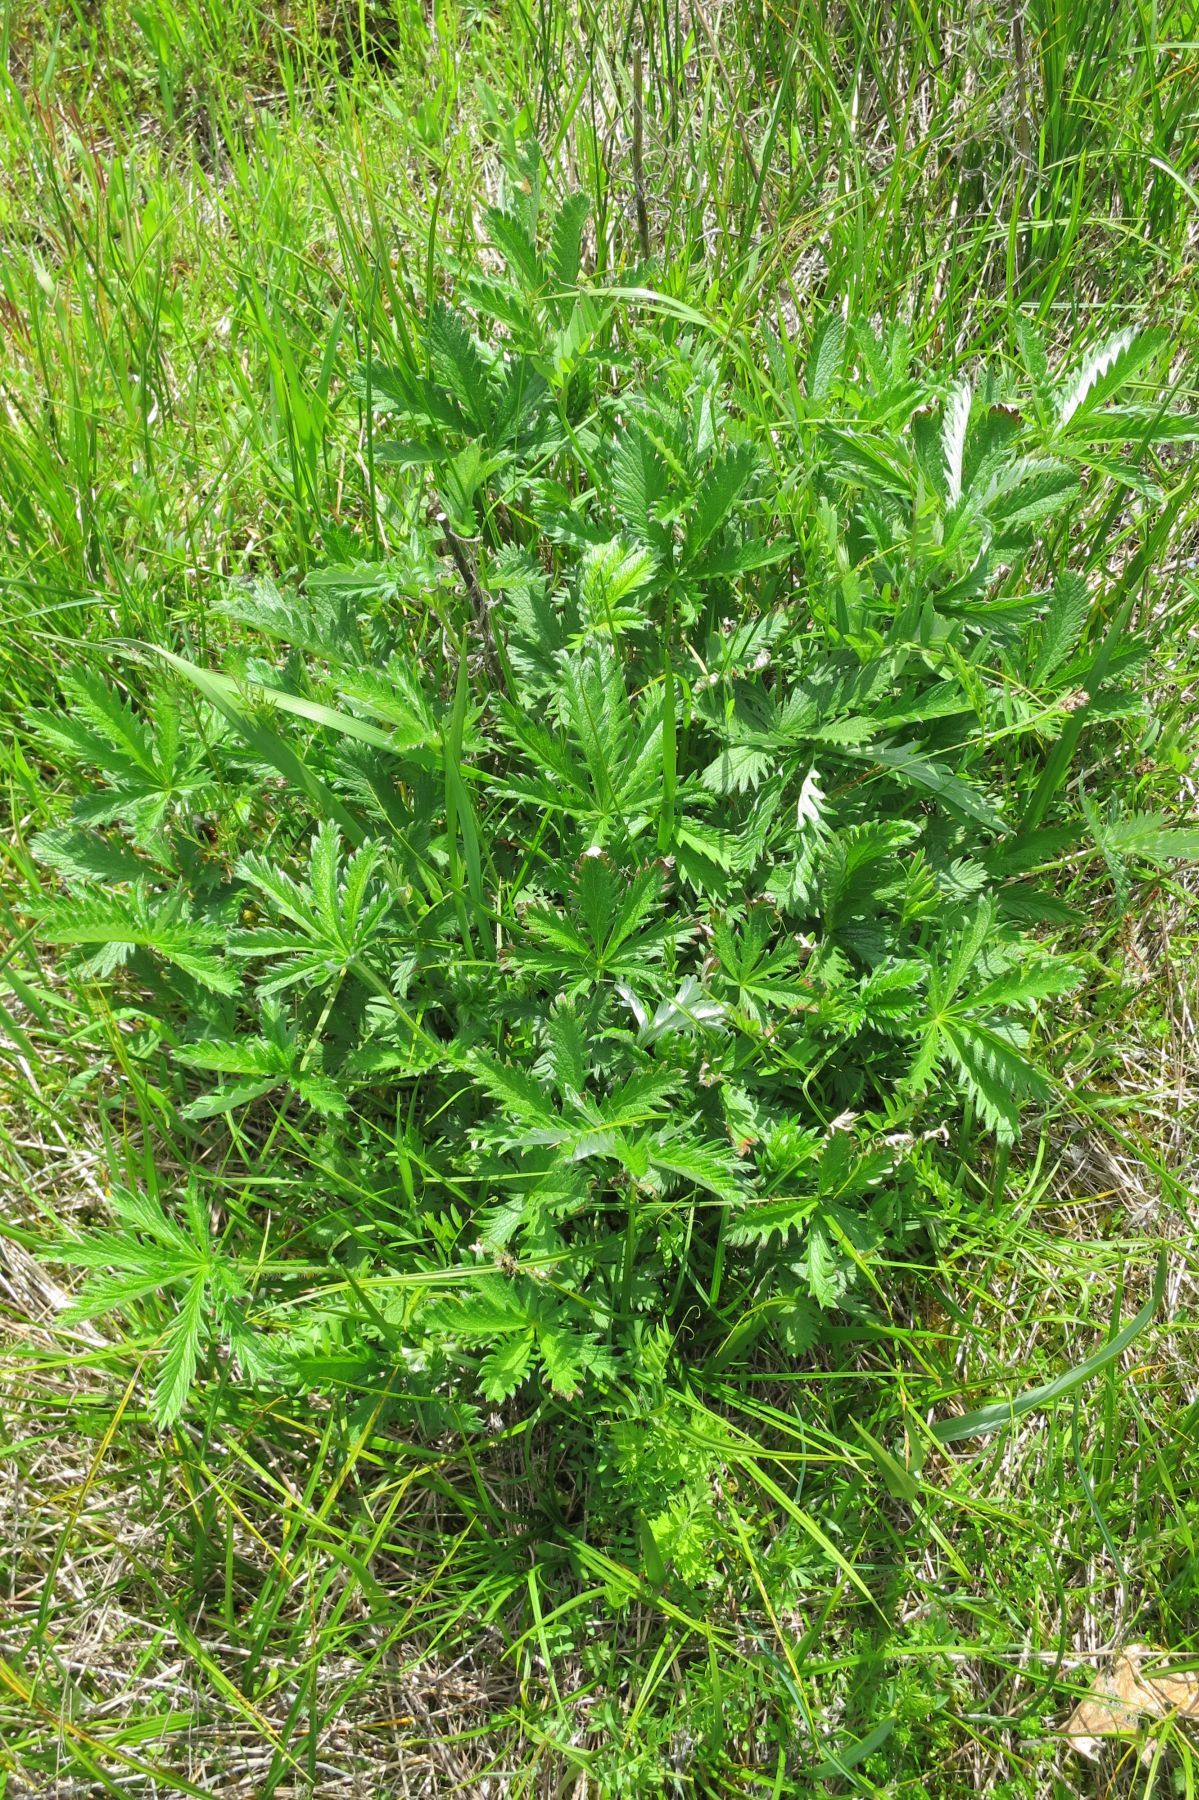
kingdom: Plantae
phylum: Tracheophyta
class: Magnoliopsida
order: Rosales
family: Rosaceae
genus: Potentilla
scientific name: Potentilla gracilis
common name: Graceful cinquefoil
